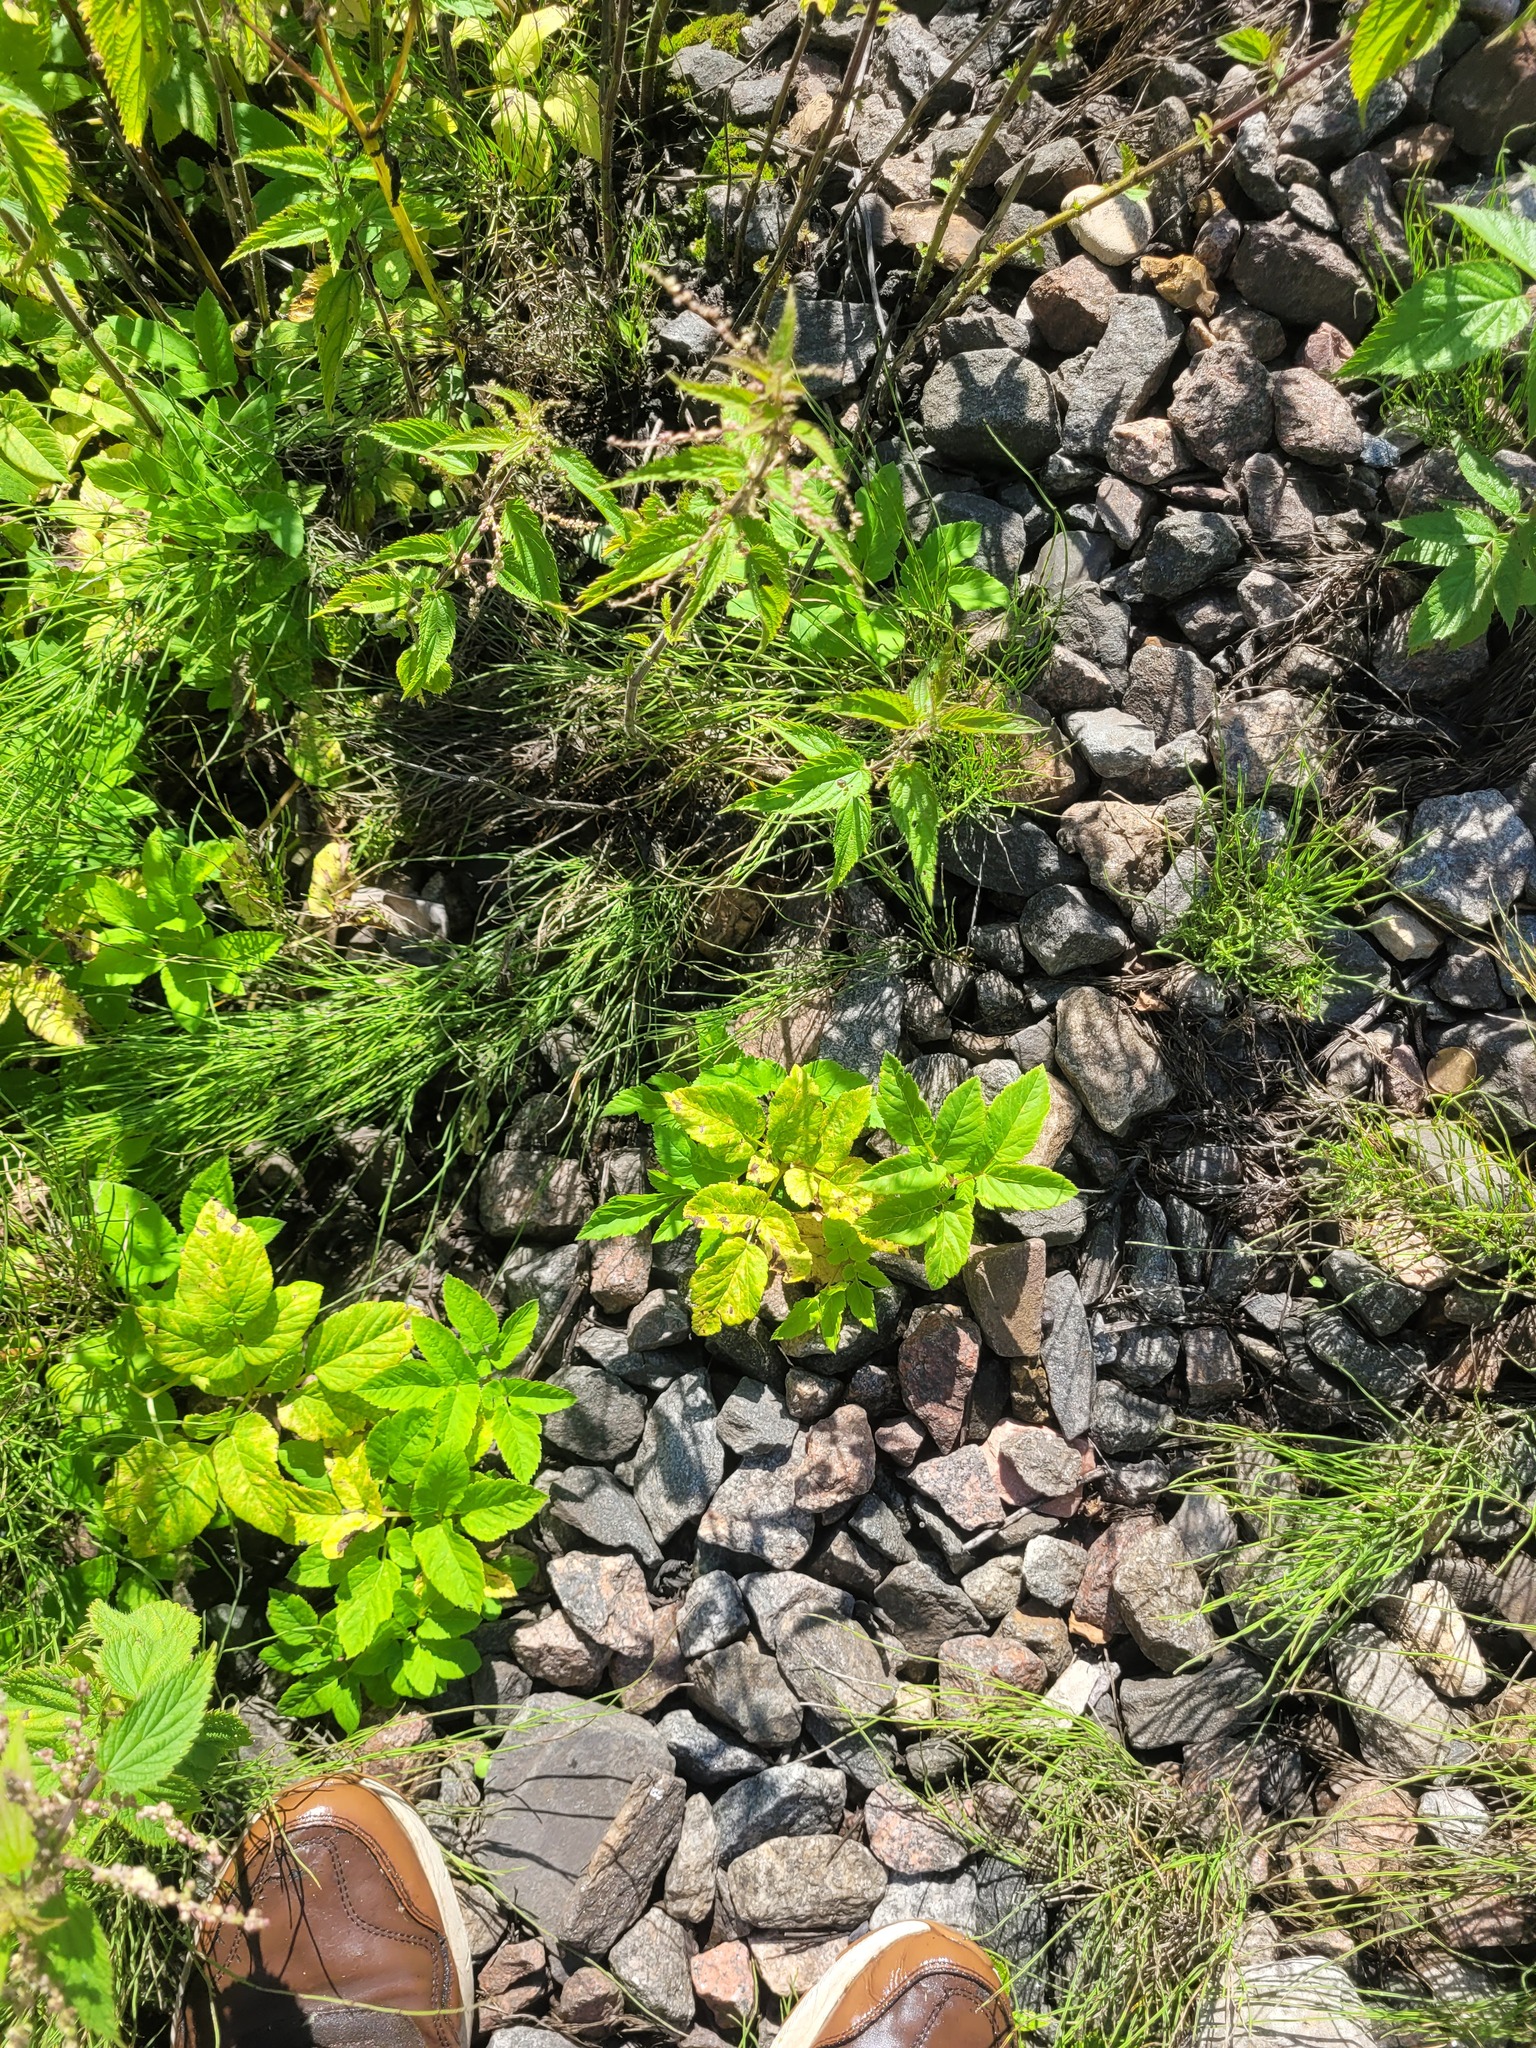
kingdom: Plantae
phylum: Tracheophyta
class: Magnoliopsida
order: Apiales
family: Apiaceae
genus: Aegopodium
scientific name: Aegopodium podagraria
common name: Ground-elder
